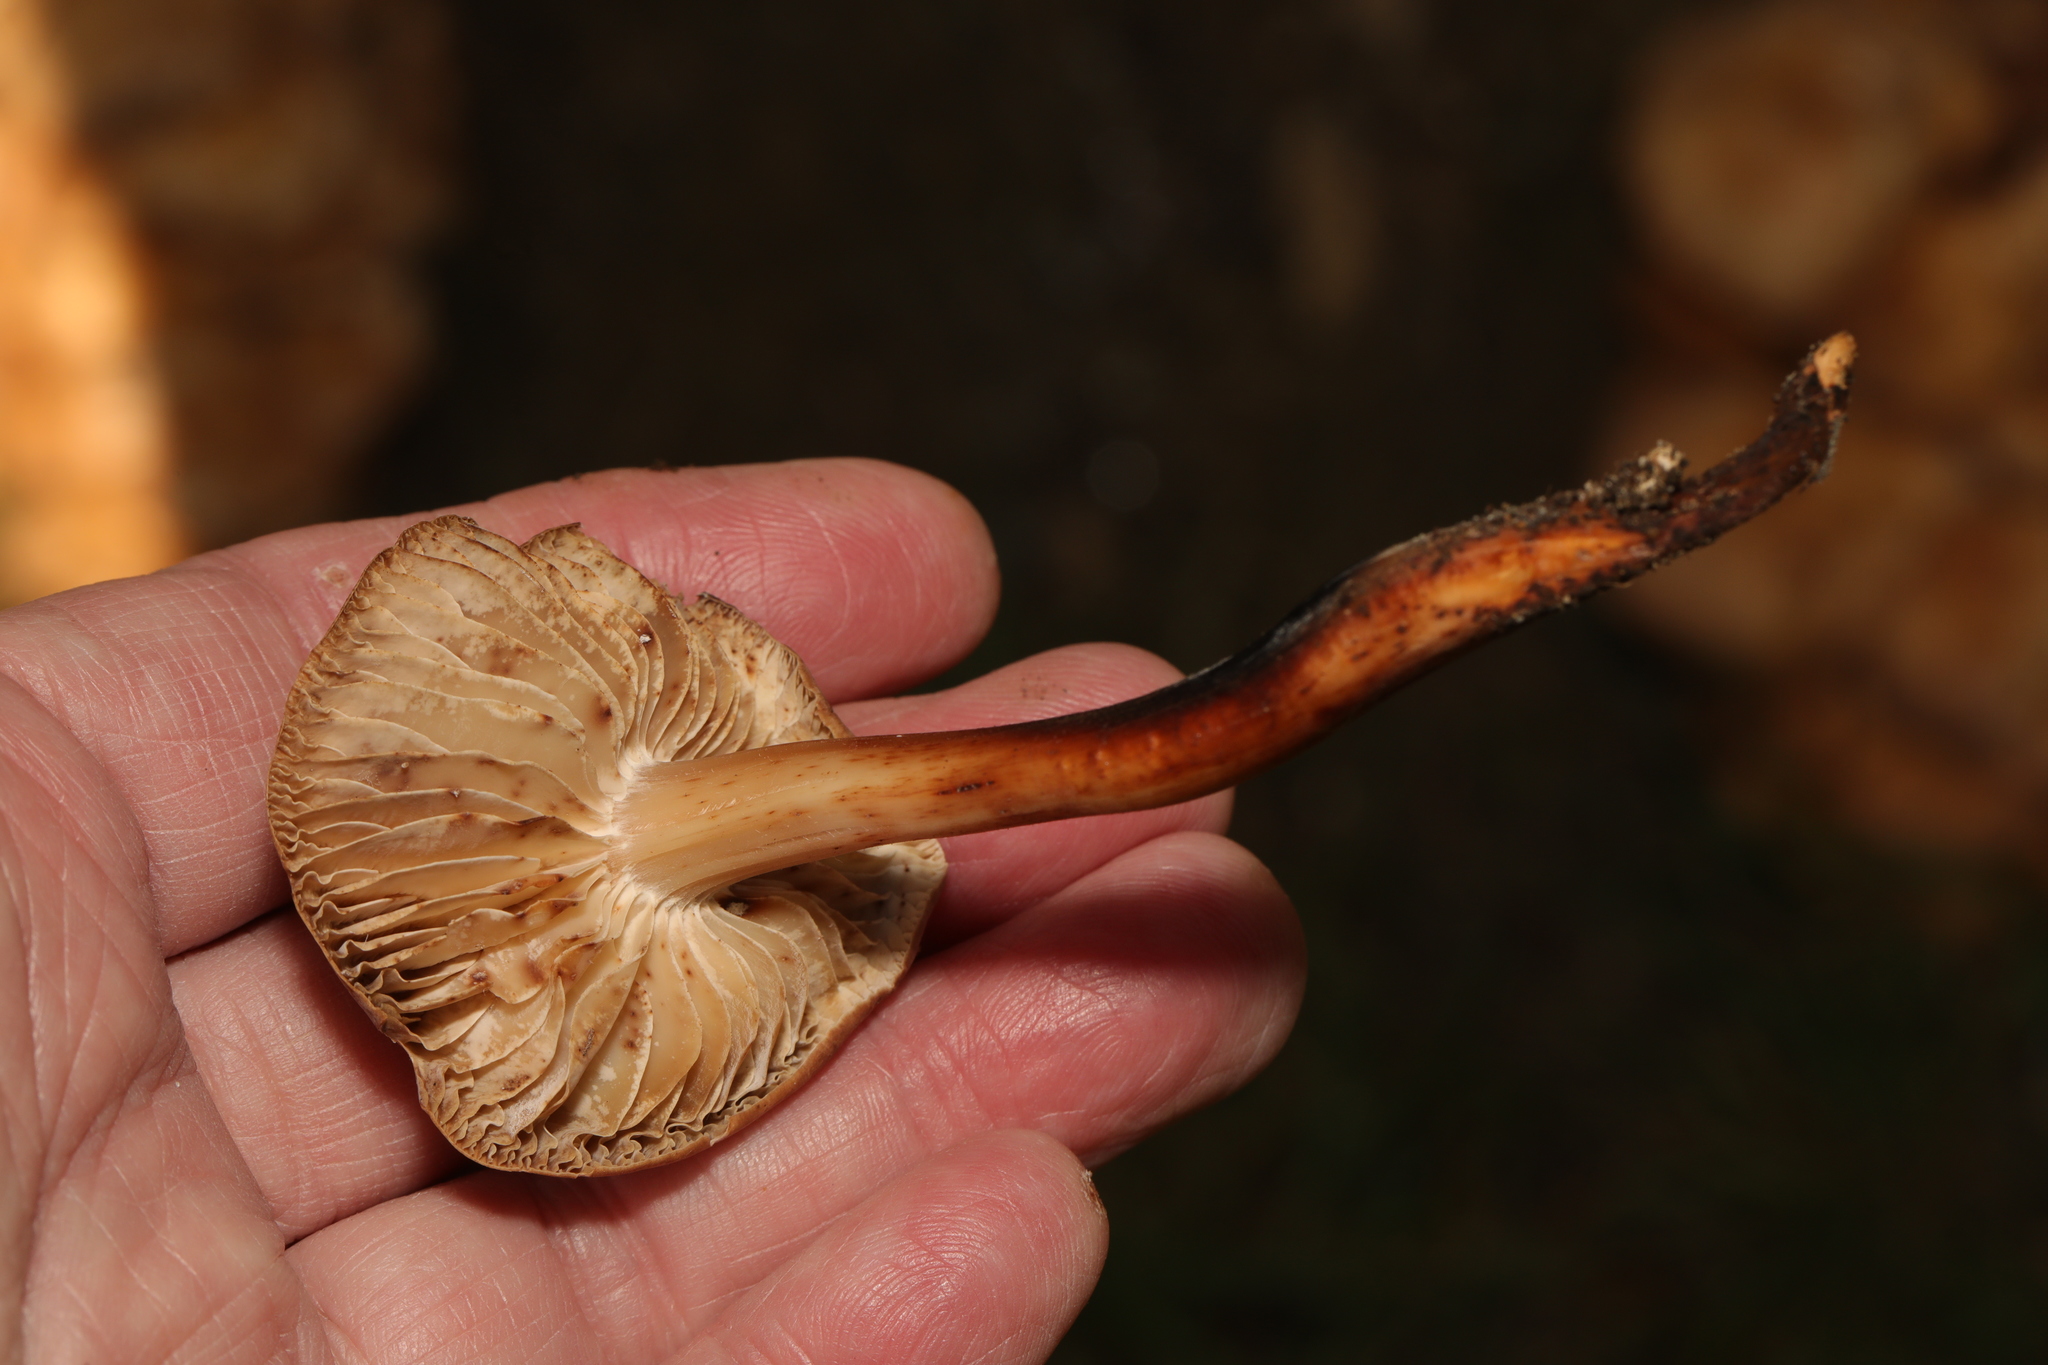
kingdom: Fungi
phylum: Basidiomycota
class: Agaricomycetes
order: Agaricales
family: Omphalotaceae
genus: Gymnopus
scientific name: Gymnopus fusipes
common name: Spindle shank
